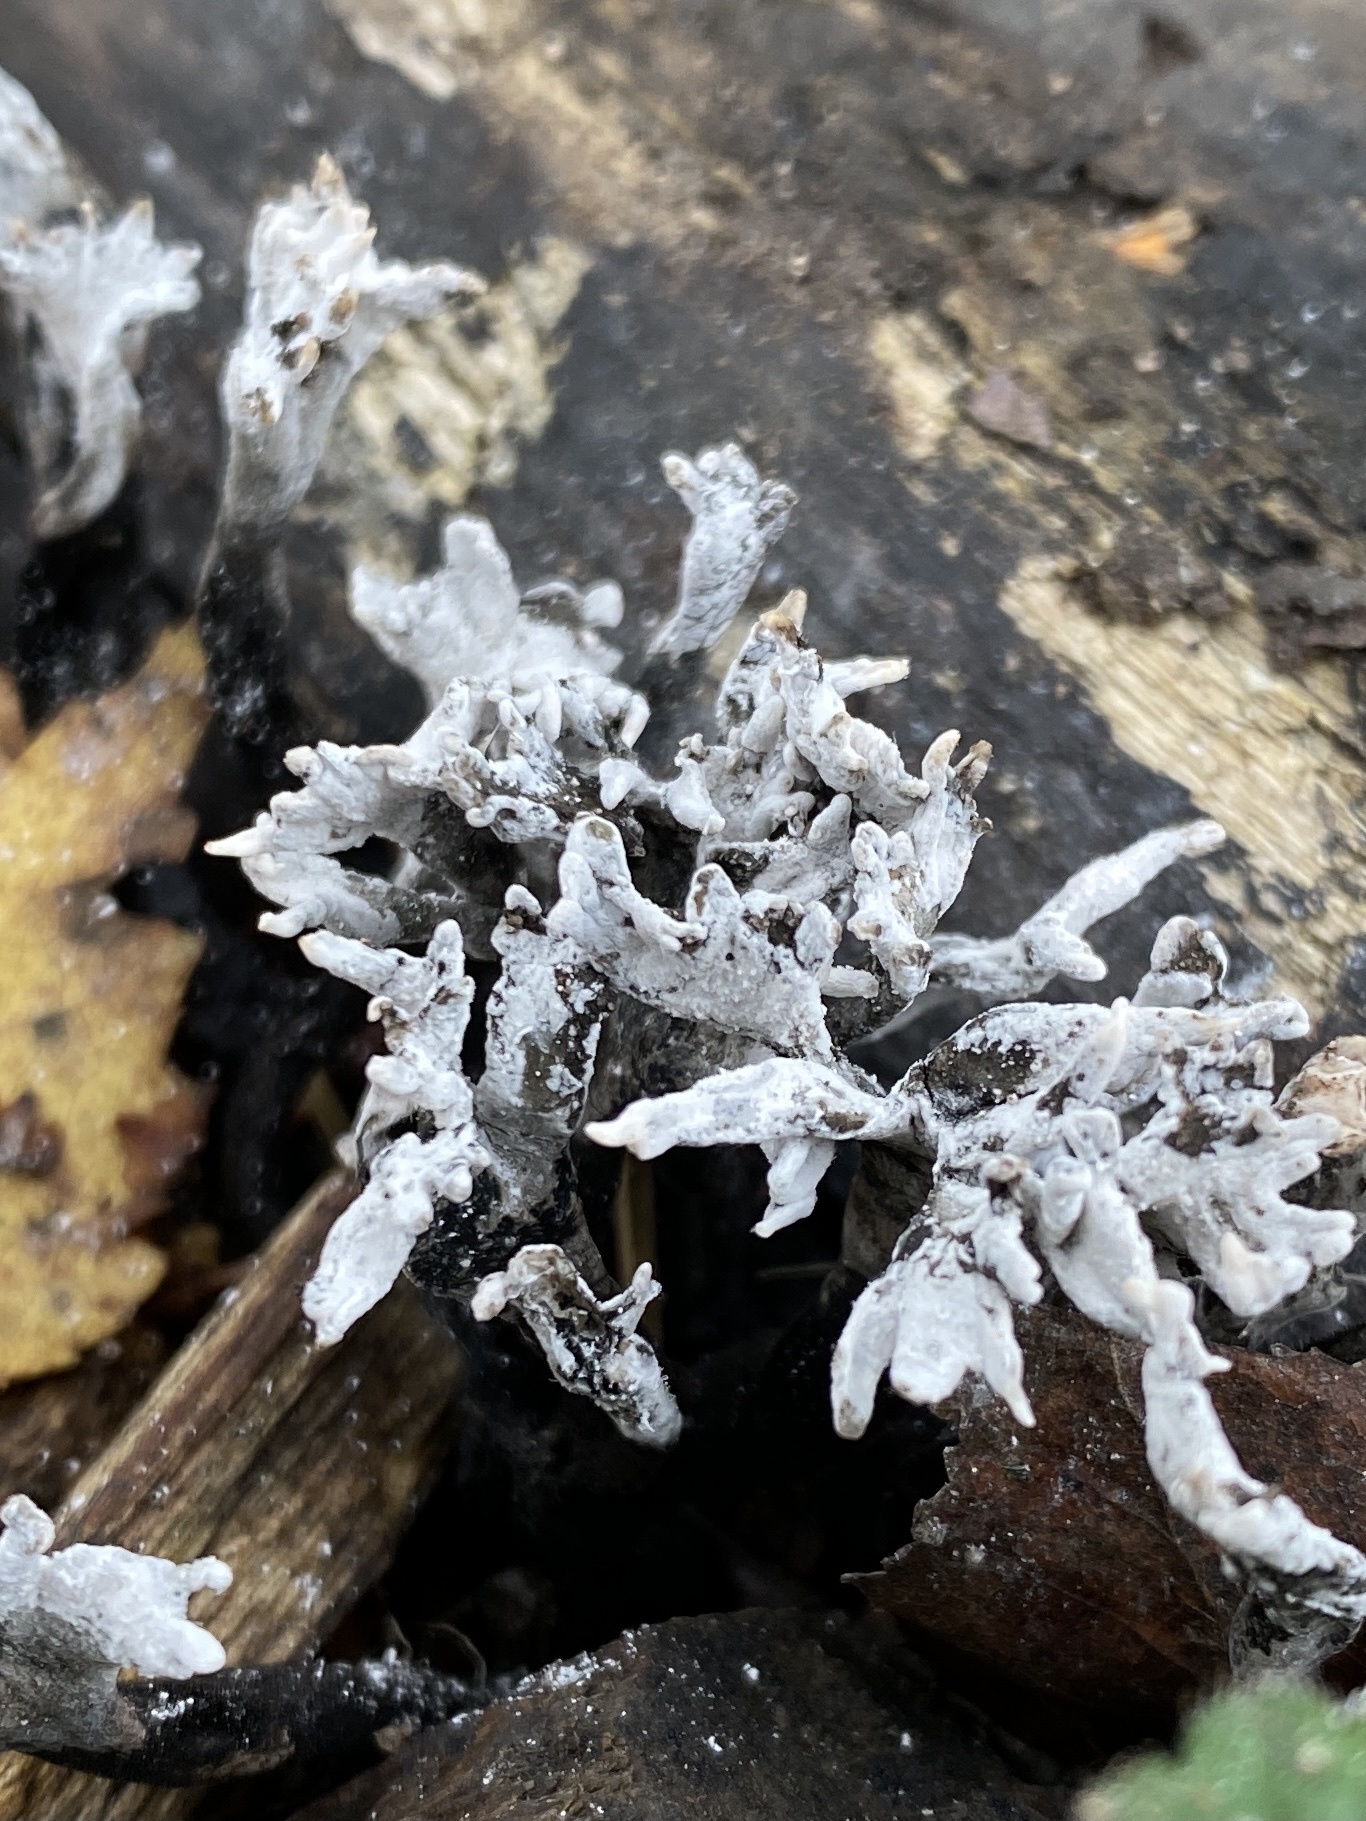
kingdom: Fungi
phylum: Ascomycota
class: Sordariomycetes
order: Xylariales
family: Xylariaceae
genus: Xylaria
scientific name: Xylaria hypoxylon
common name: Candle-snuff fungus
